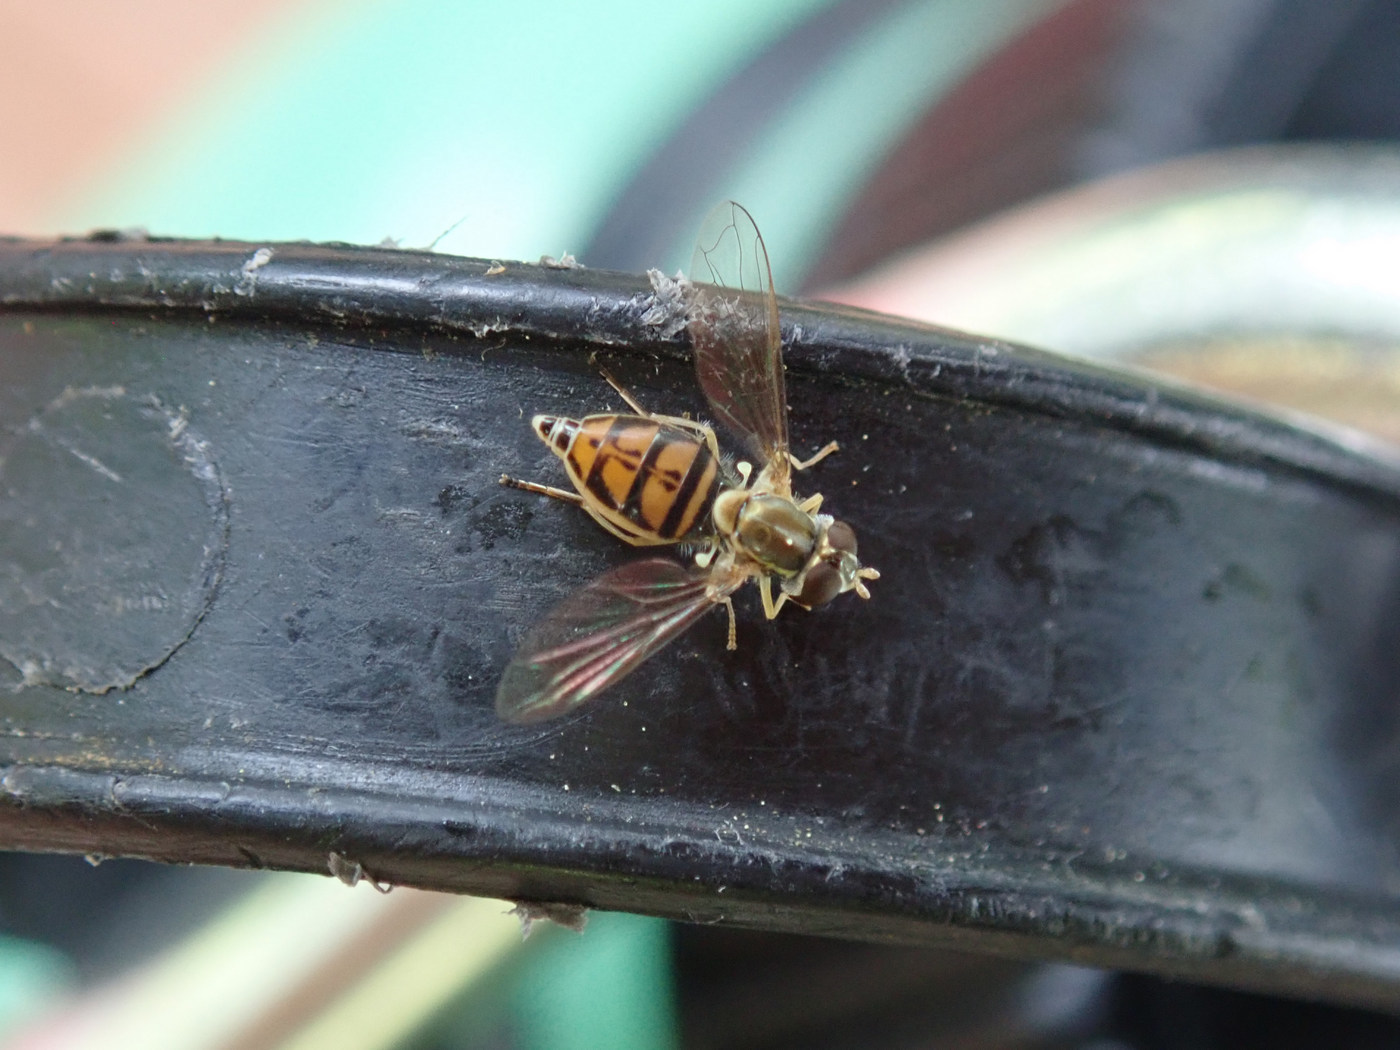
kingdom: Animalia
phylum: Arthropoda
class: Insecta
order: Diptera
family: Syrphidae
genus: Toxomerus
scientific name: Toxomerus marginatus
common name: Syrphid fly
